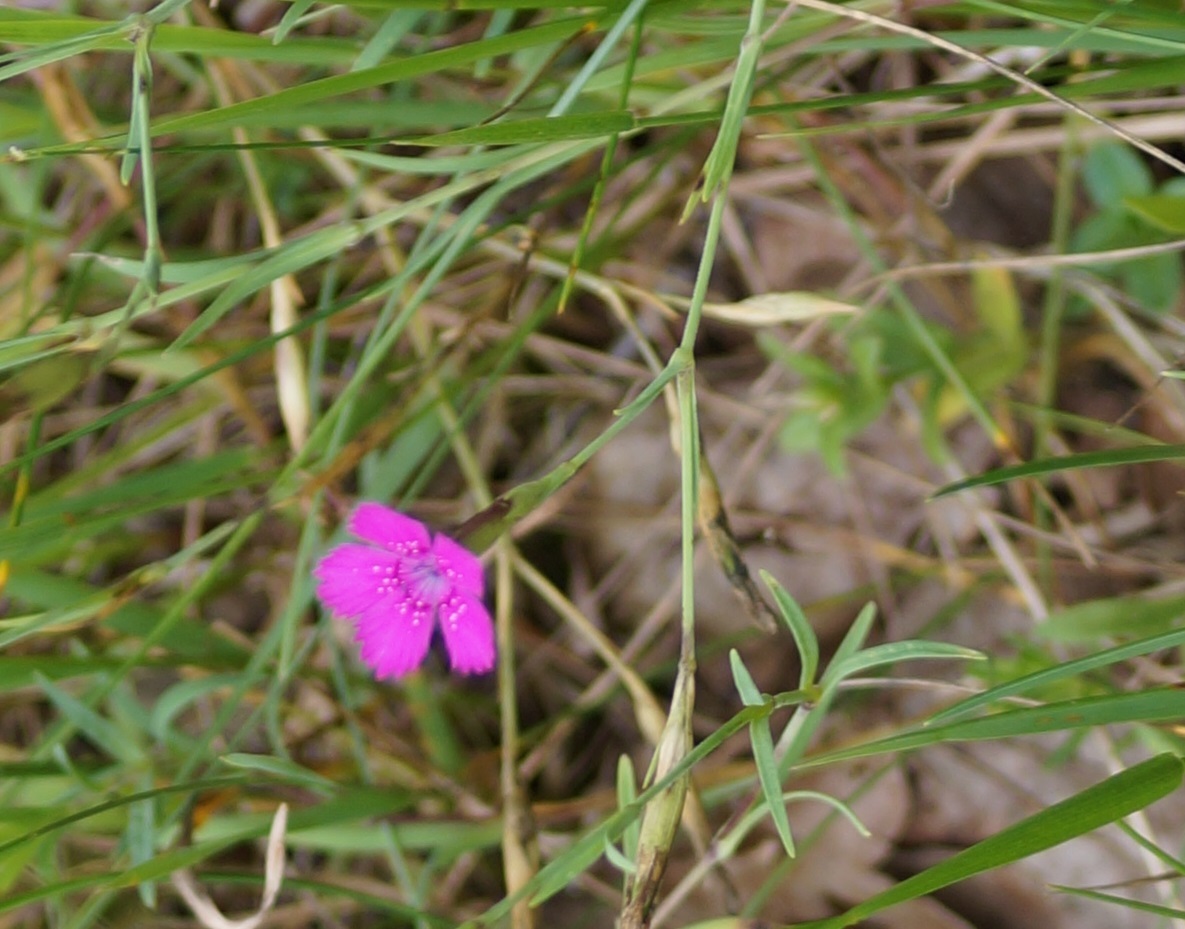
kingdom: Plantae
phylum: Tracheophyta
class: Magnoliopsida
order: Caryophyllales
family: Caryophyllaceae
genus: Dianthus
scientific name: Dianthus deltoides
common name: Maiden pink
